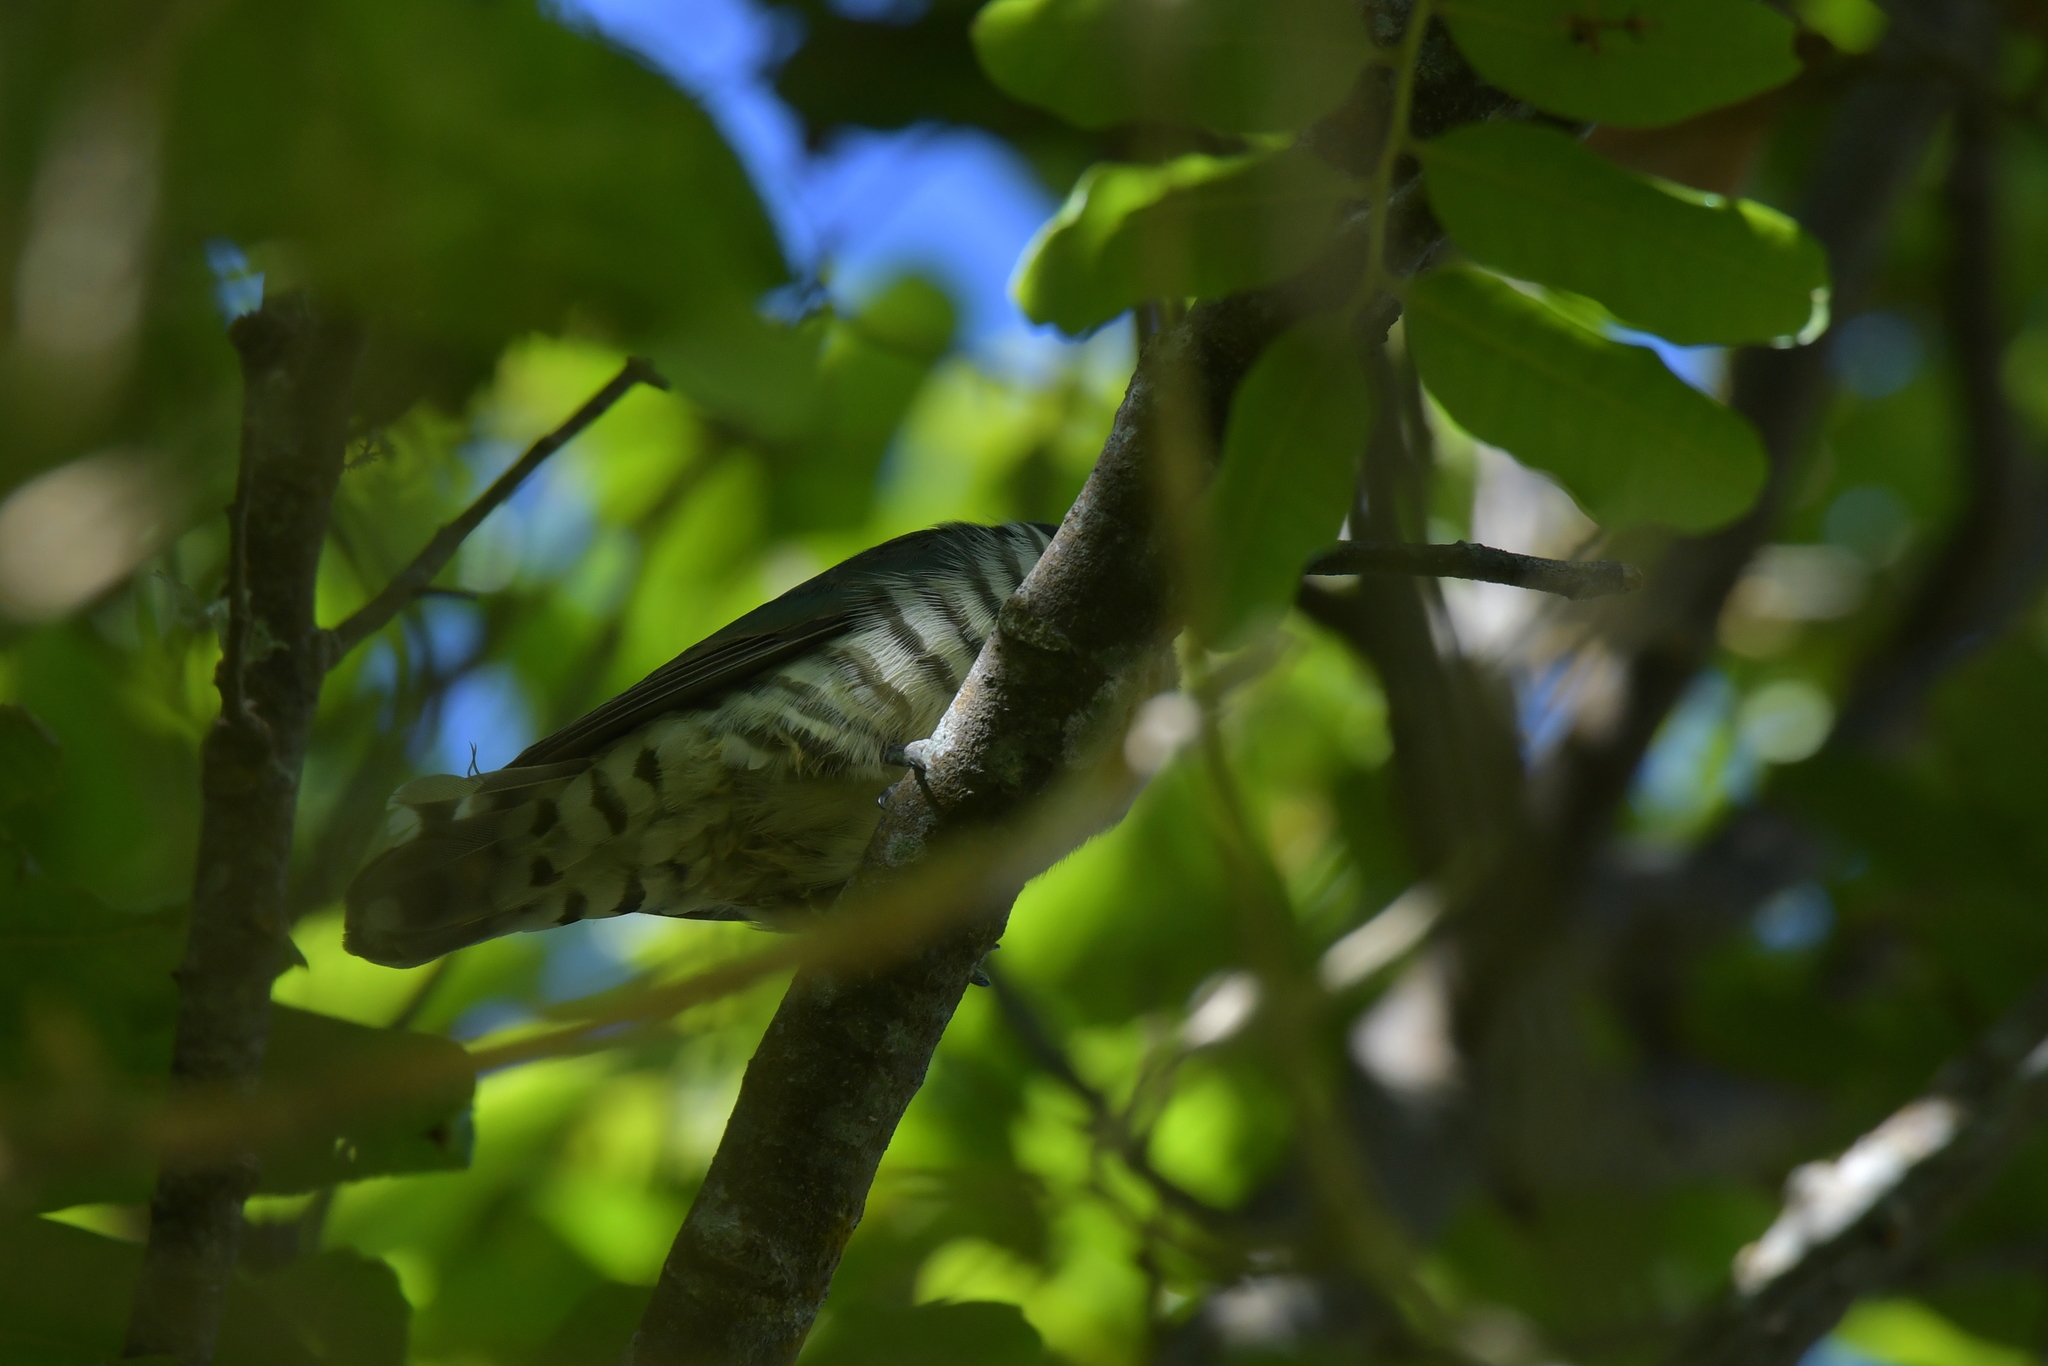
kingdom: Animalia
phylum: Chordata
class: Aves
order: Cuculiformes
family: Cuculidae
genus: Chrysococcyx
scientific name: Chrysococcyx lucidus
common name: Shining bronze cuckoo
